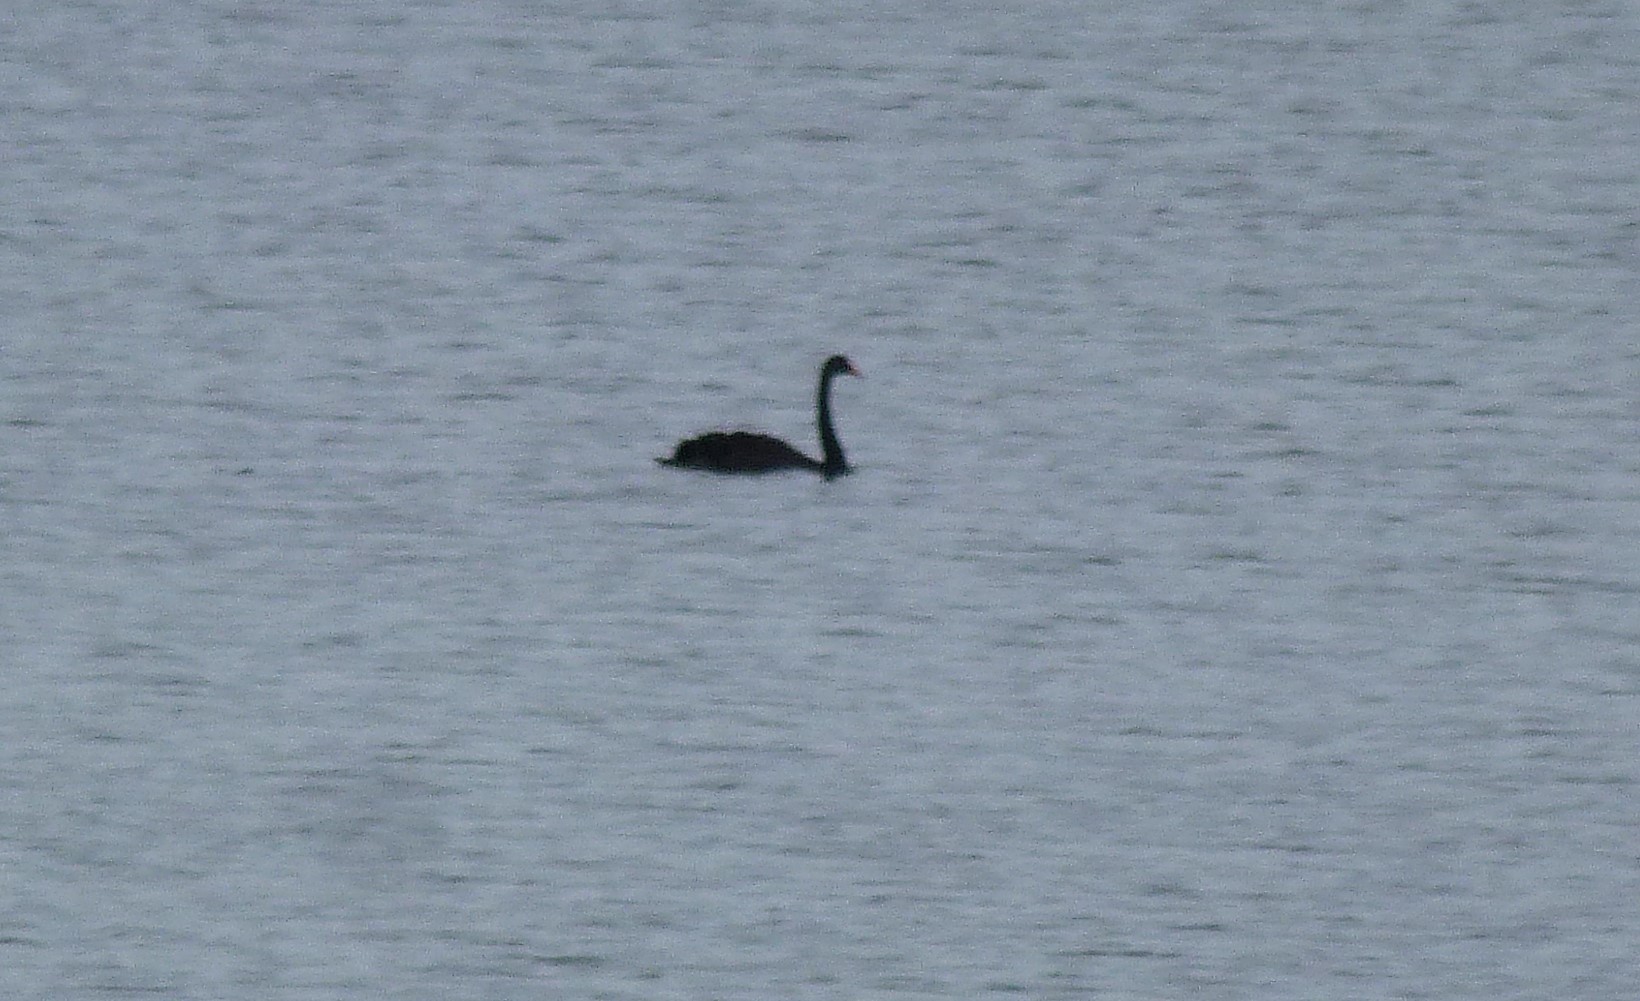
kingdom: Animalia
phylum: Chordata
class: Aves
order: Anseriformes
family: Anatidae
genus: Cygnus
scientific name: Cygnus atratus
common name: Black swan
